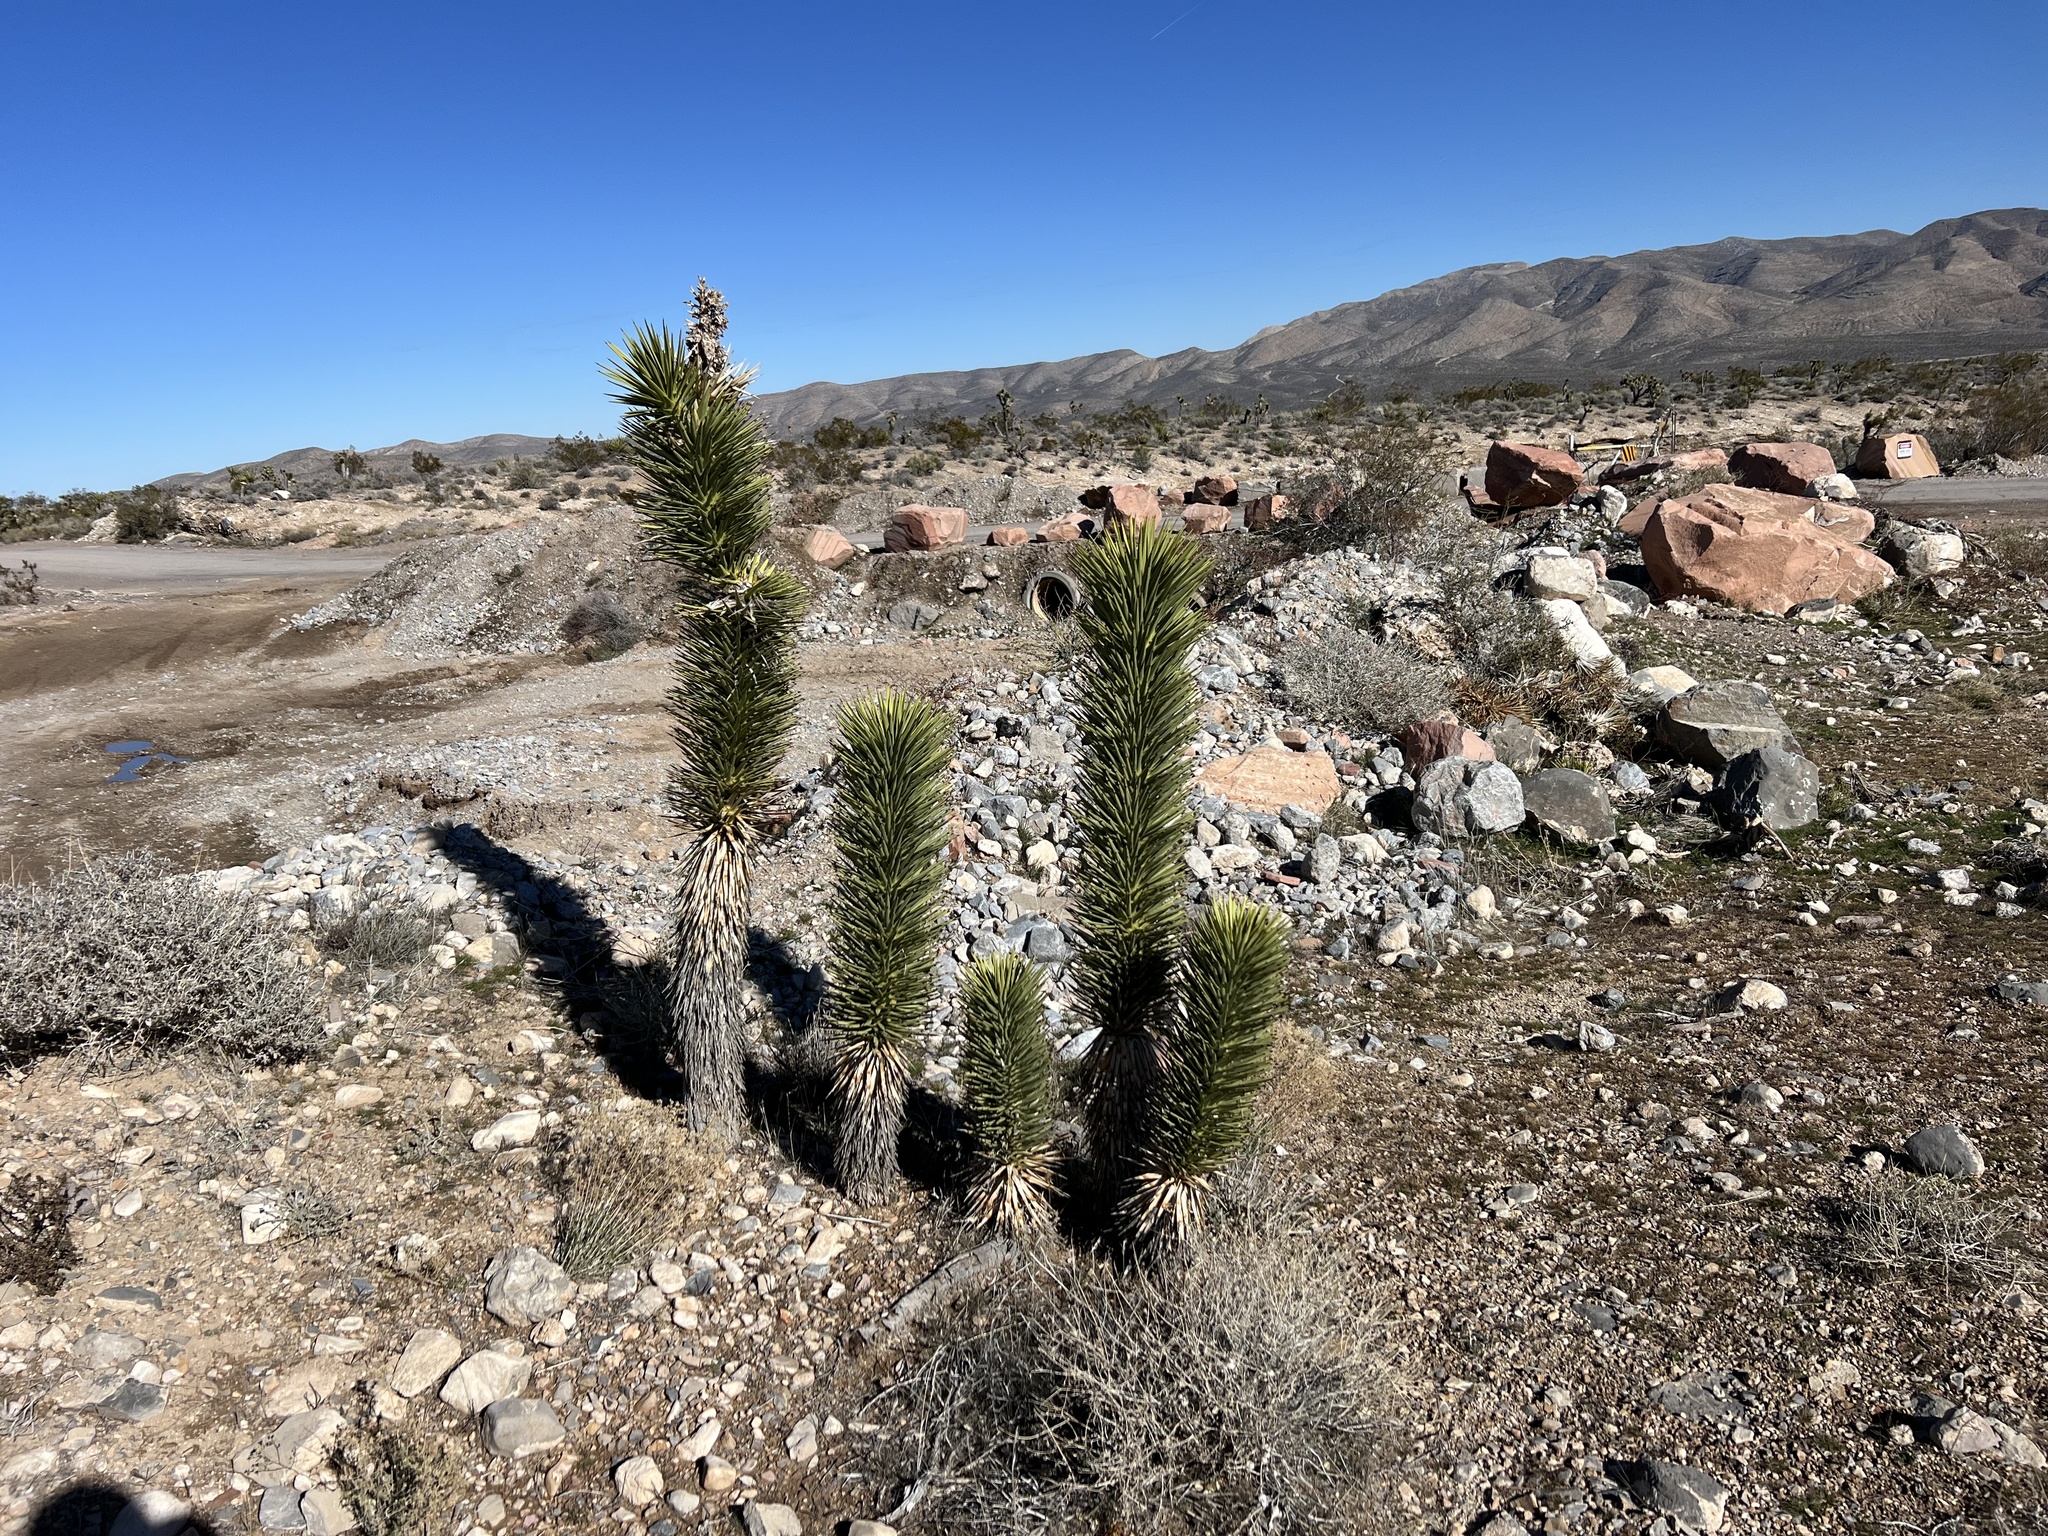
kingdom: Plantae
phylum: Tracheophyta
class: Liliopsida
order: Asparagales
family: Asparagaceae
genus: Yucca
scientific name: Yucca brevifolia
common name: Joshua tree
